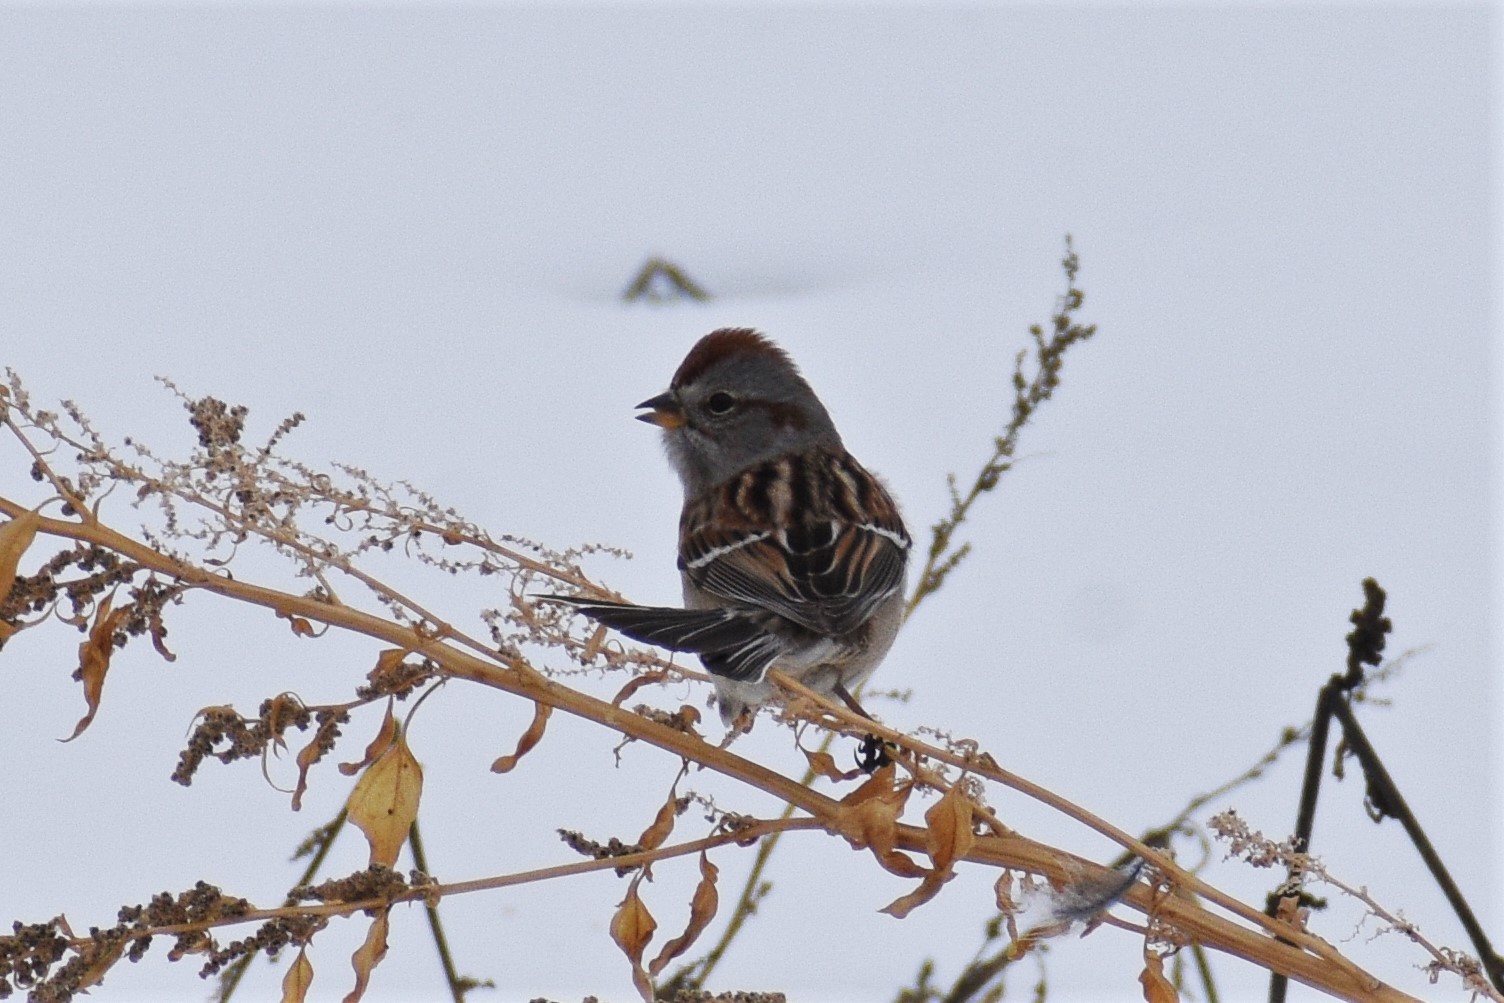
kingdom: Animalia
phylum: Chordata
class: Aves
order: Passeriformes
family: Passerellidae
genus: Spizelloides
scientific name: Spizelloides arborea
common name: American tree sparrow
